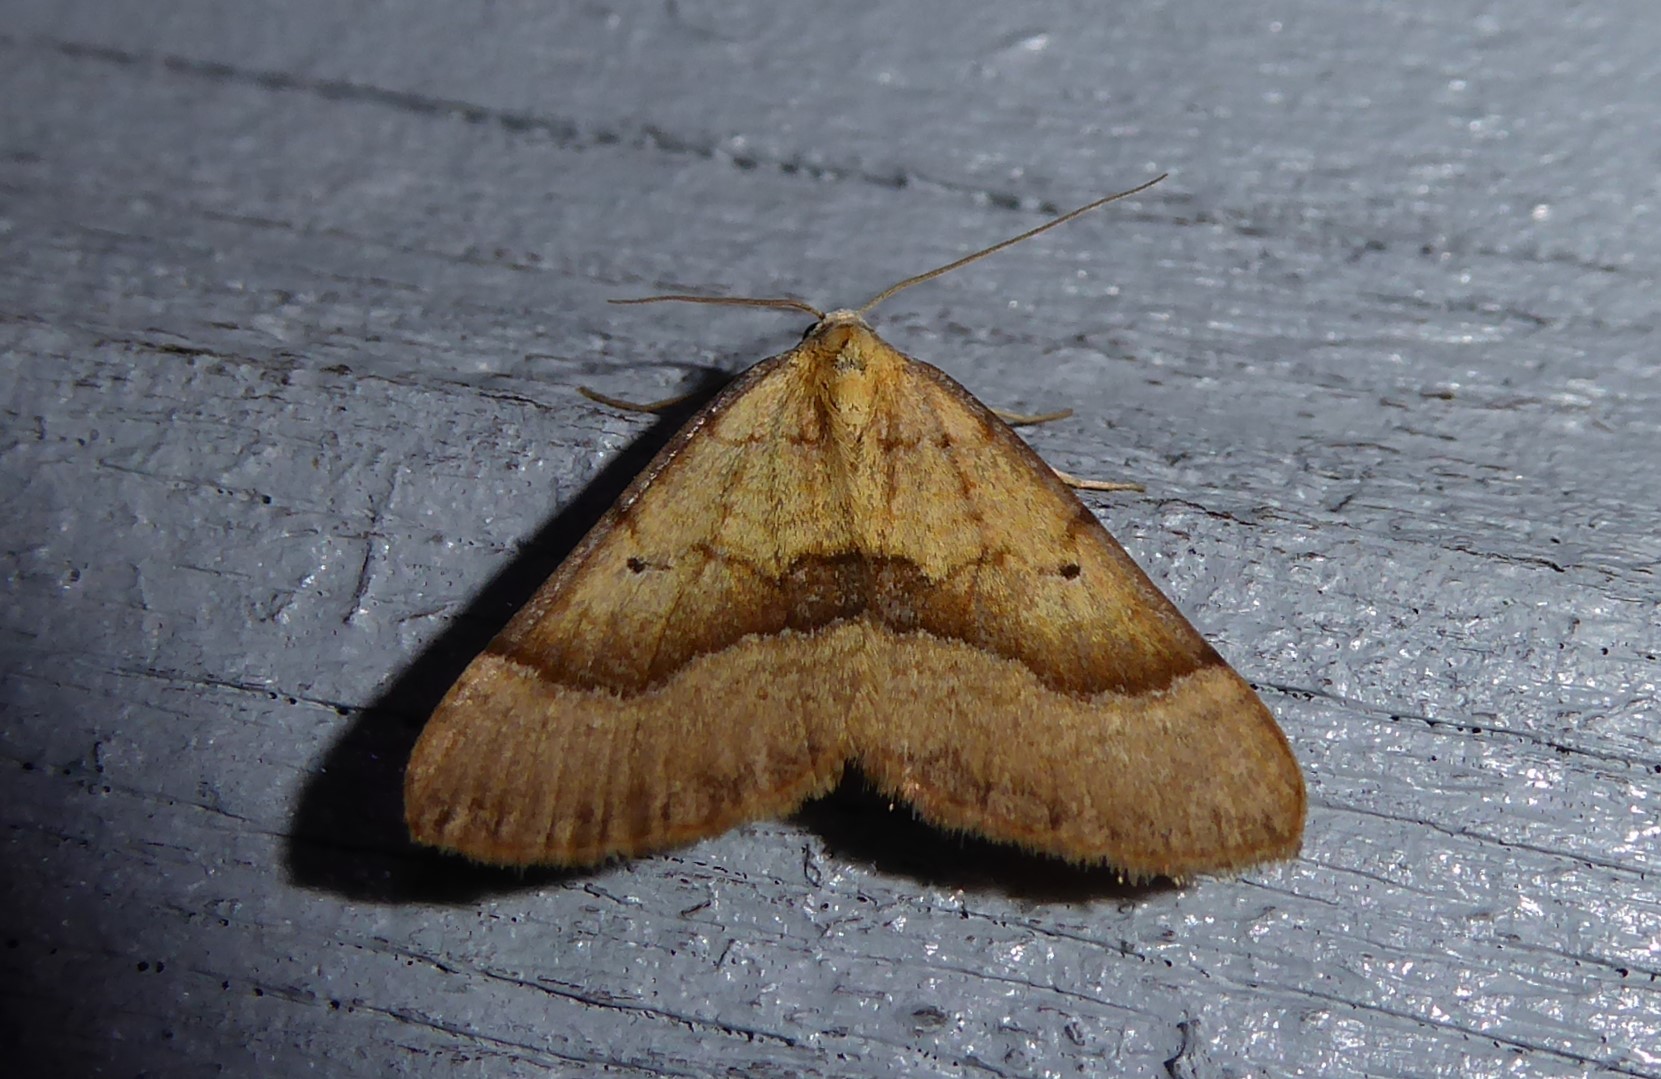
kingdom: Animalia
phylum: Arthropoda
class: Insecta
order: Lepidoptera
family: Geometridae
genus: Anachloris
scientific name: Anachloris subochraria
